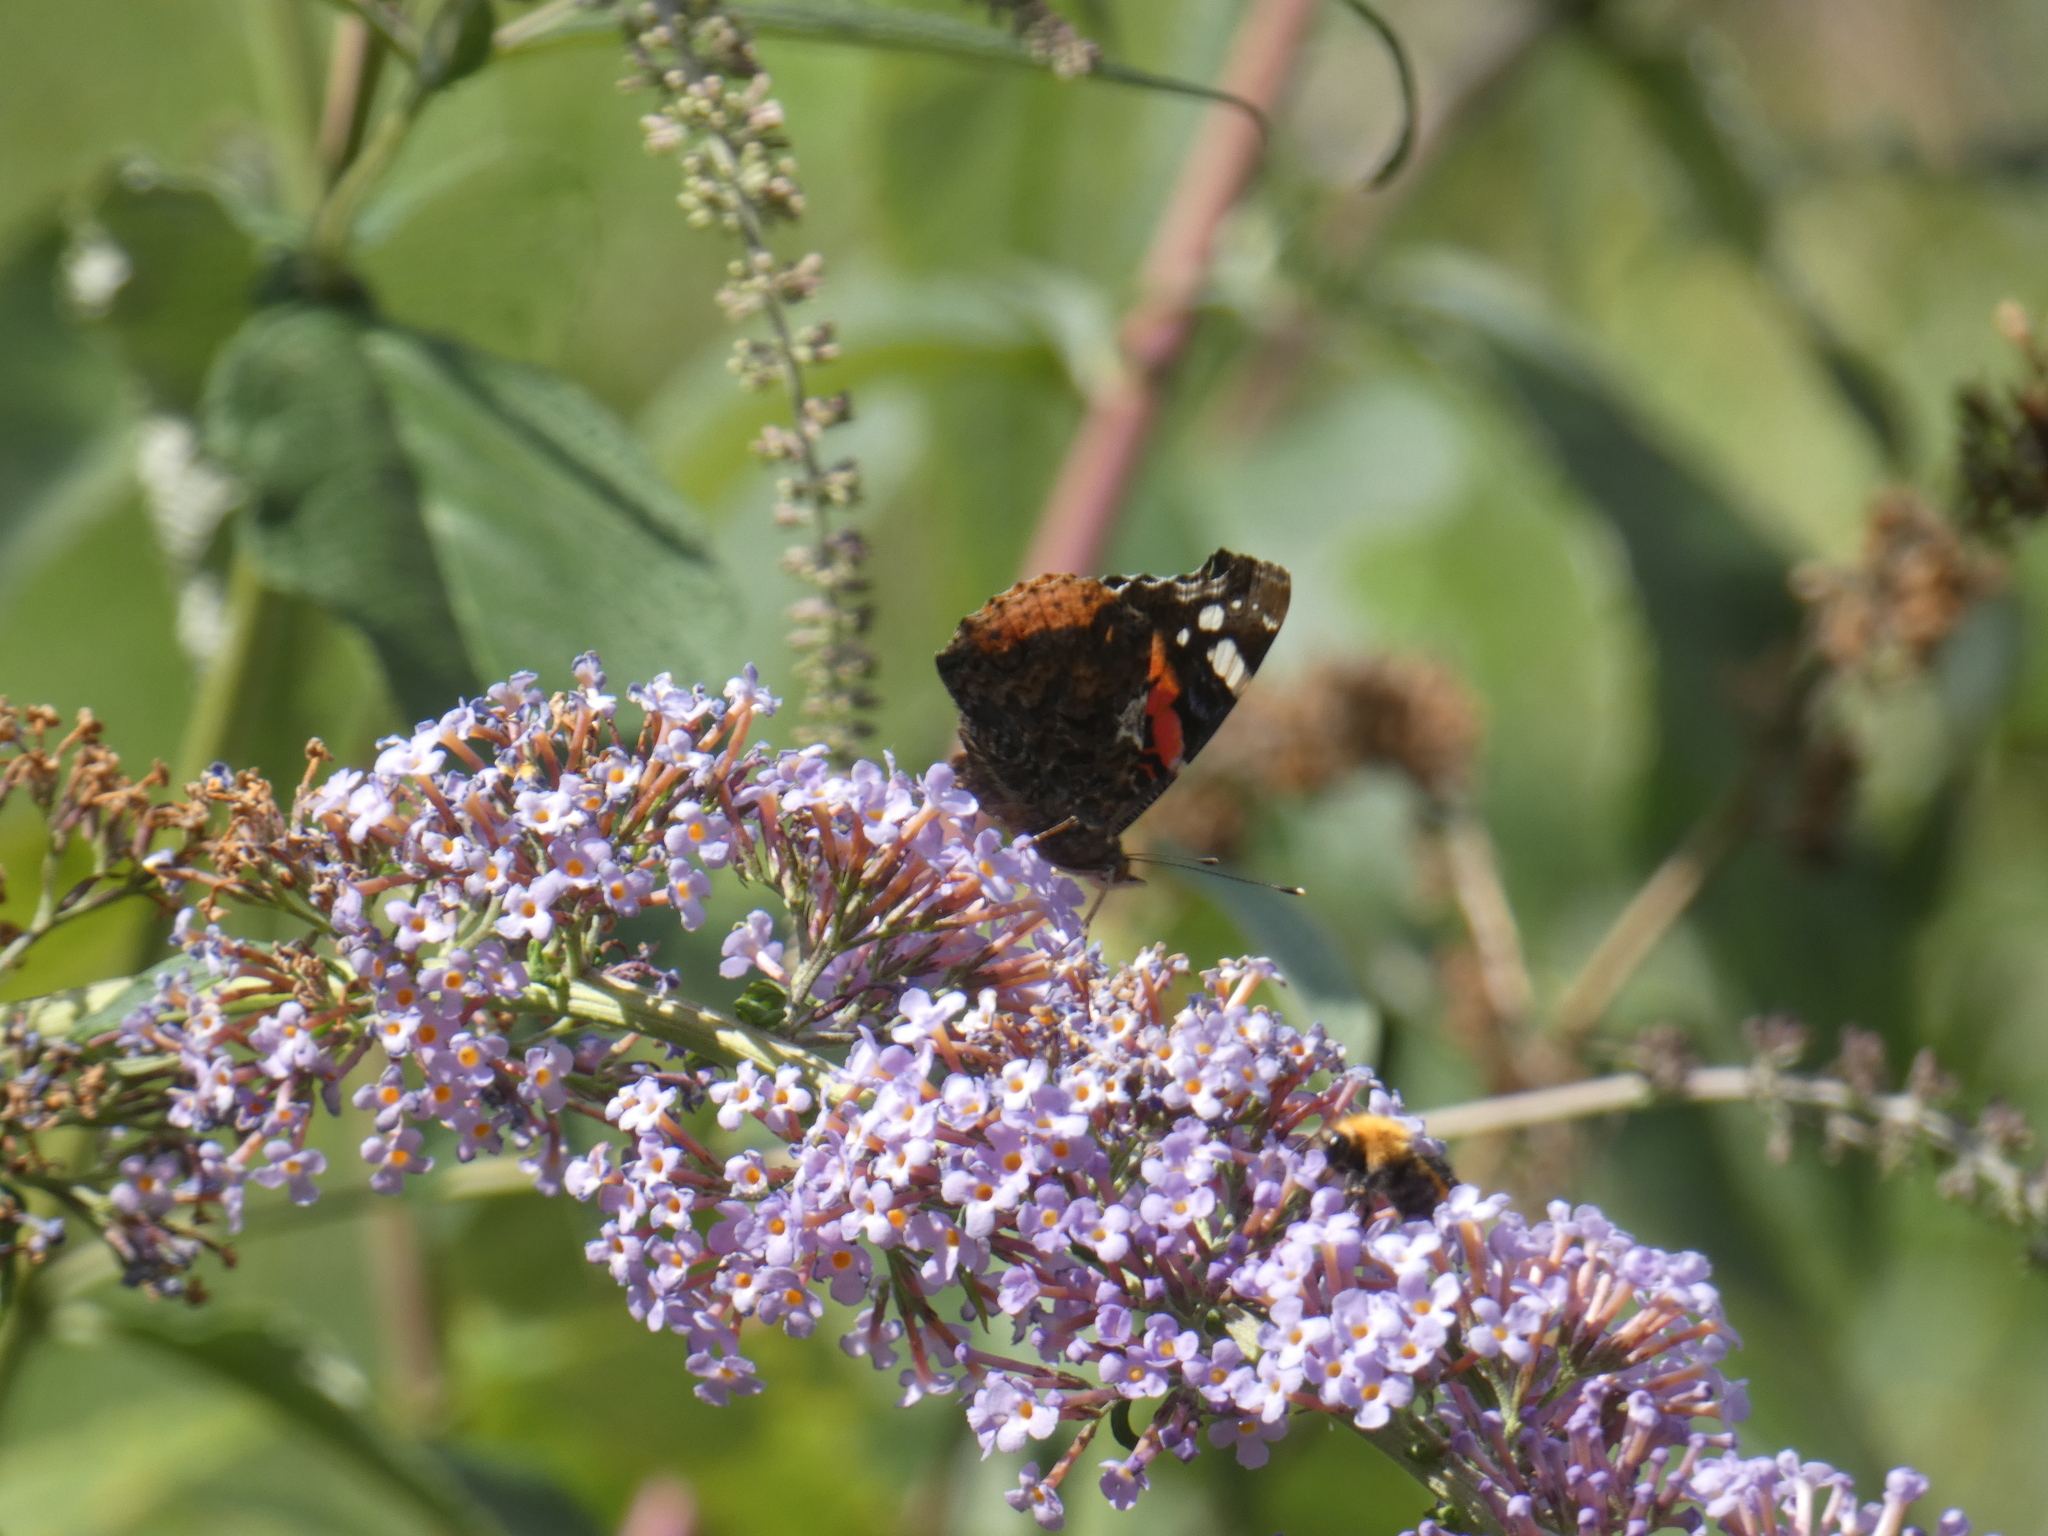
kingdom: Animalia
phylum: Arthropoda
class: Insecta
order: Lepidoptera
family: Nymphalidae
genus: Vanessa
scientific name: Vanessa atalanta
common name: Red admiral
